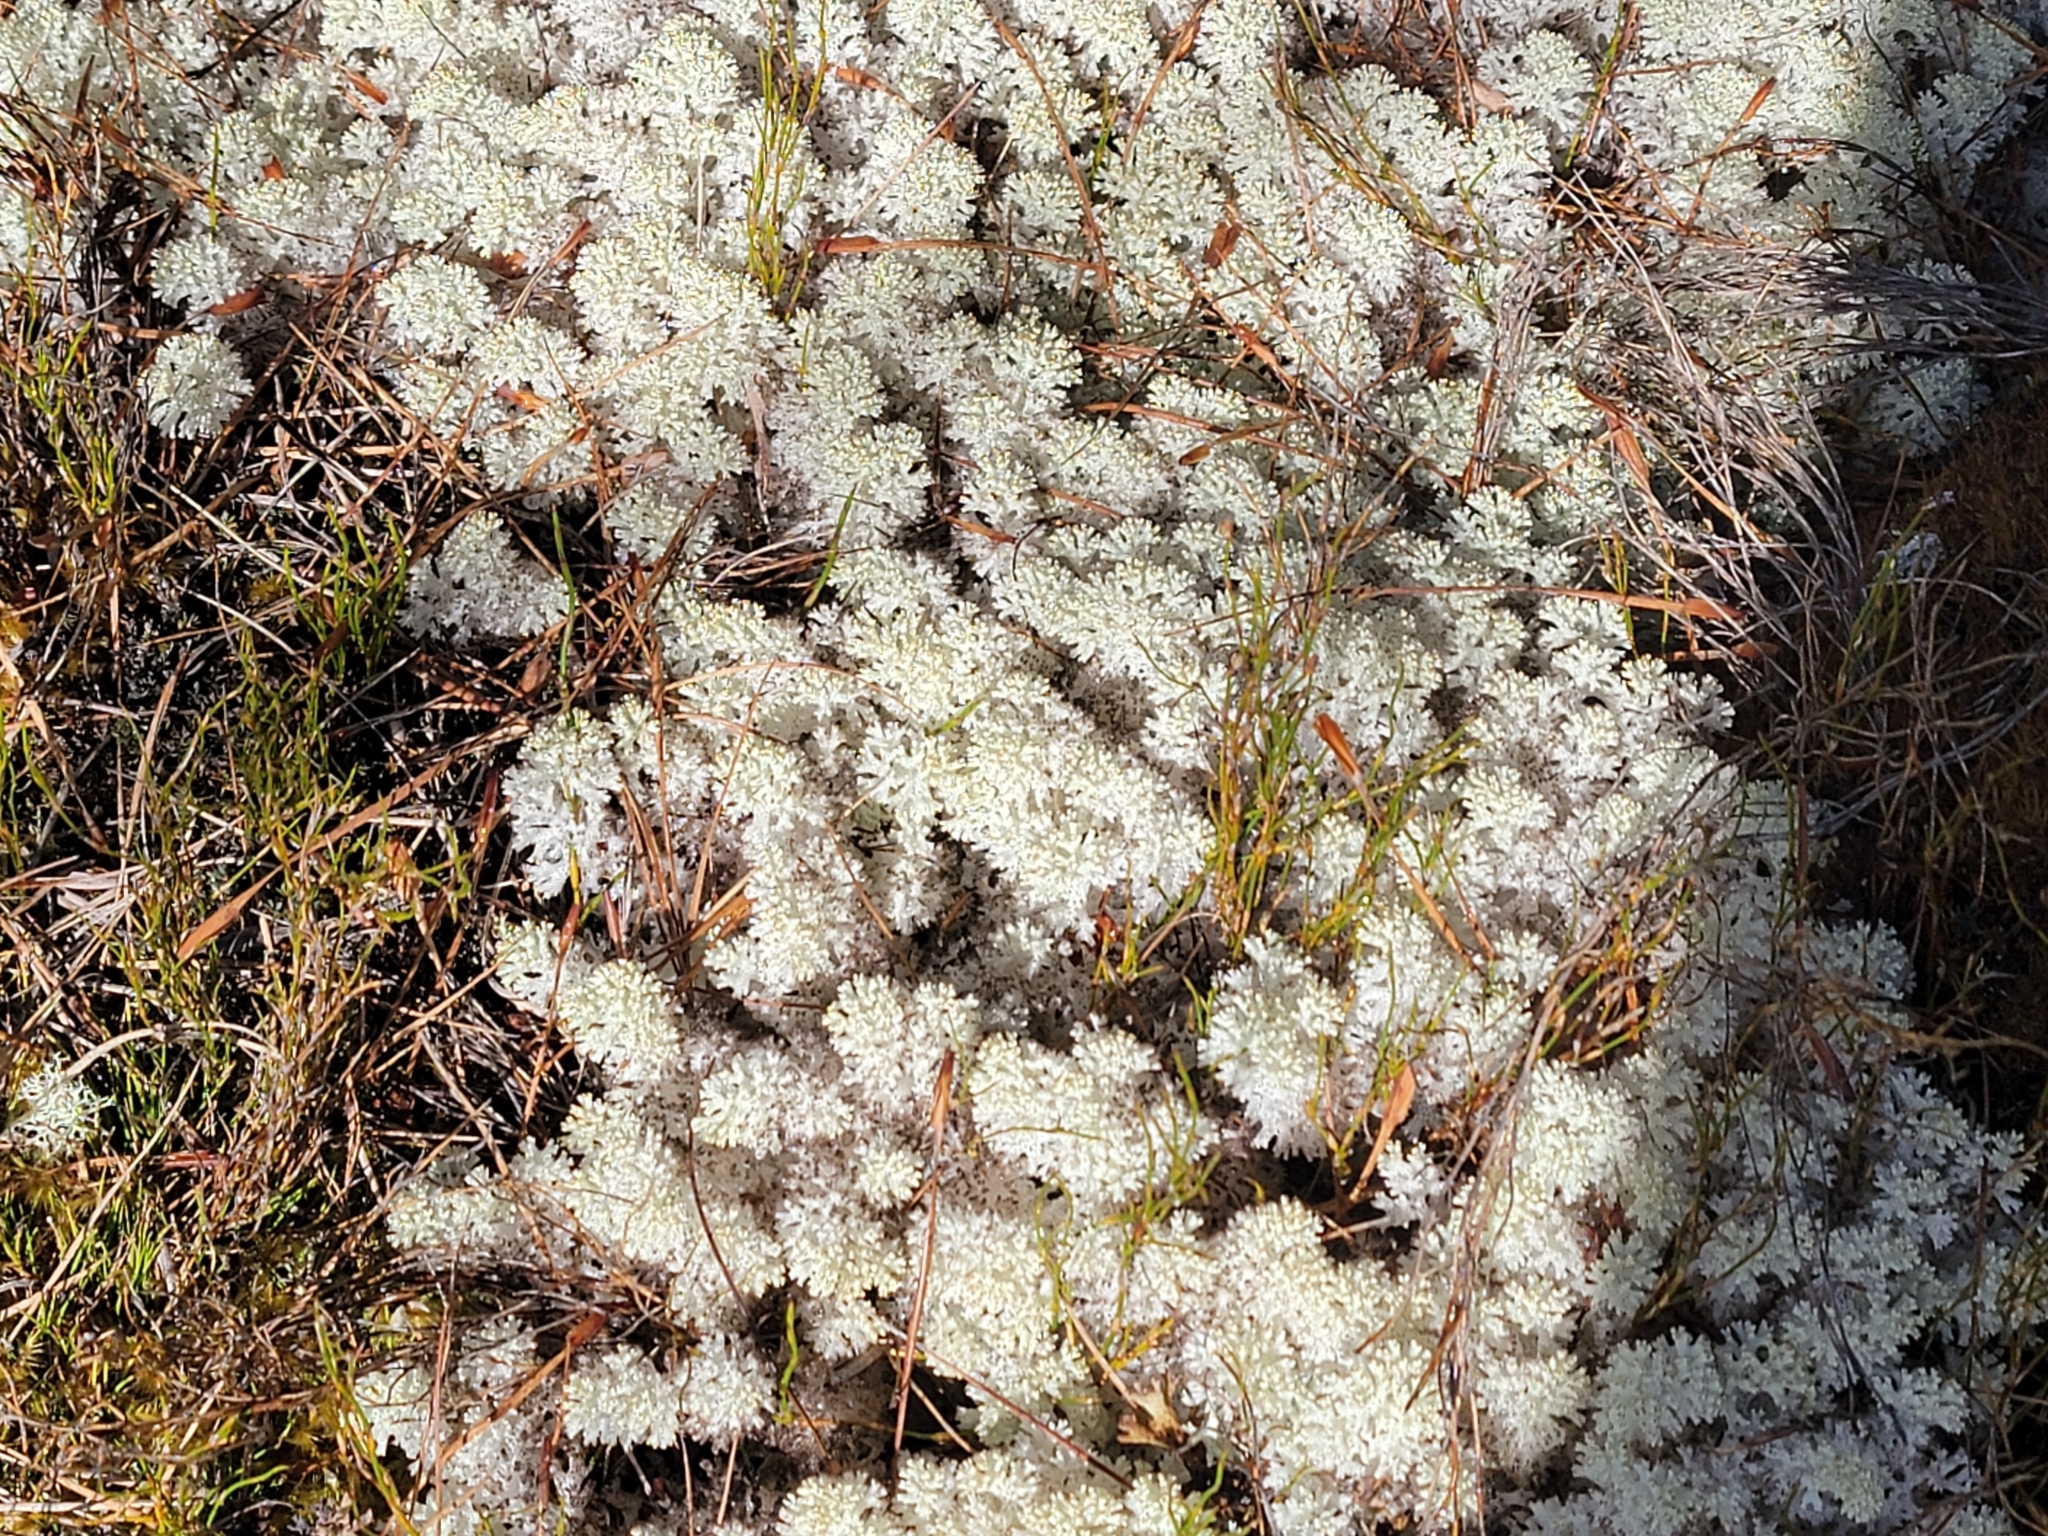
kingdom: Fungi
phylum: Ascomycota
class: Lecanoromycetes
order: Lecanorales
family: Cladoniaceae
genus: Pulchrocladia
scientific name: Pulchrocladia retipora
